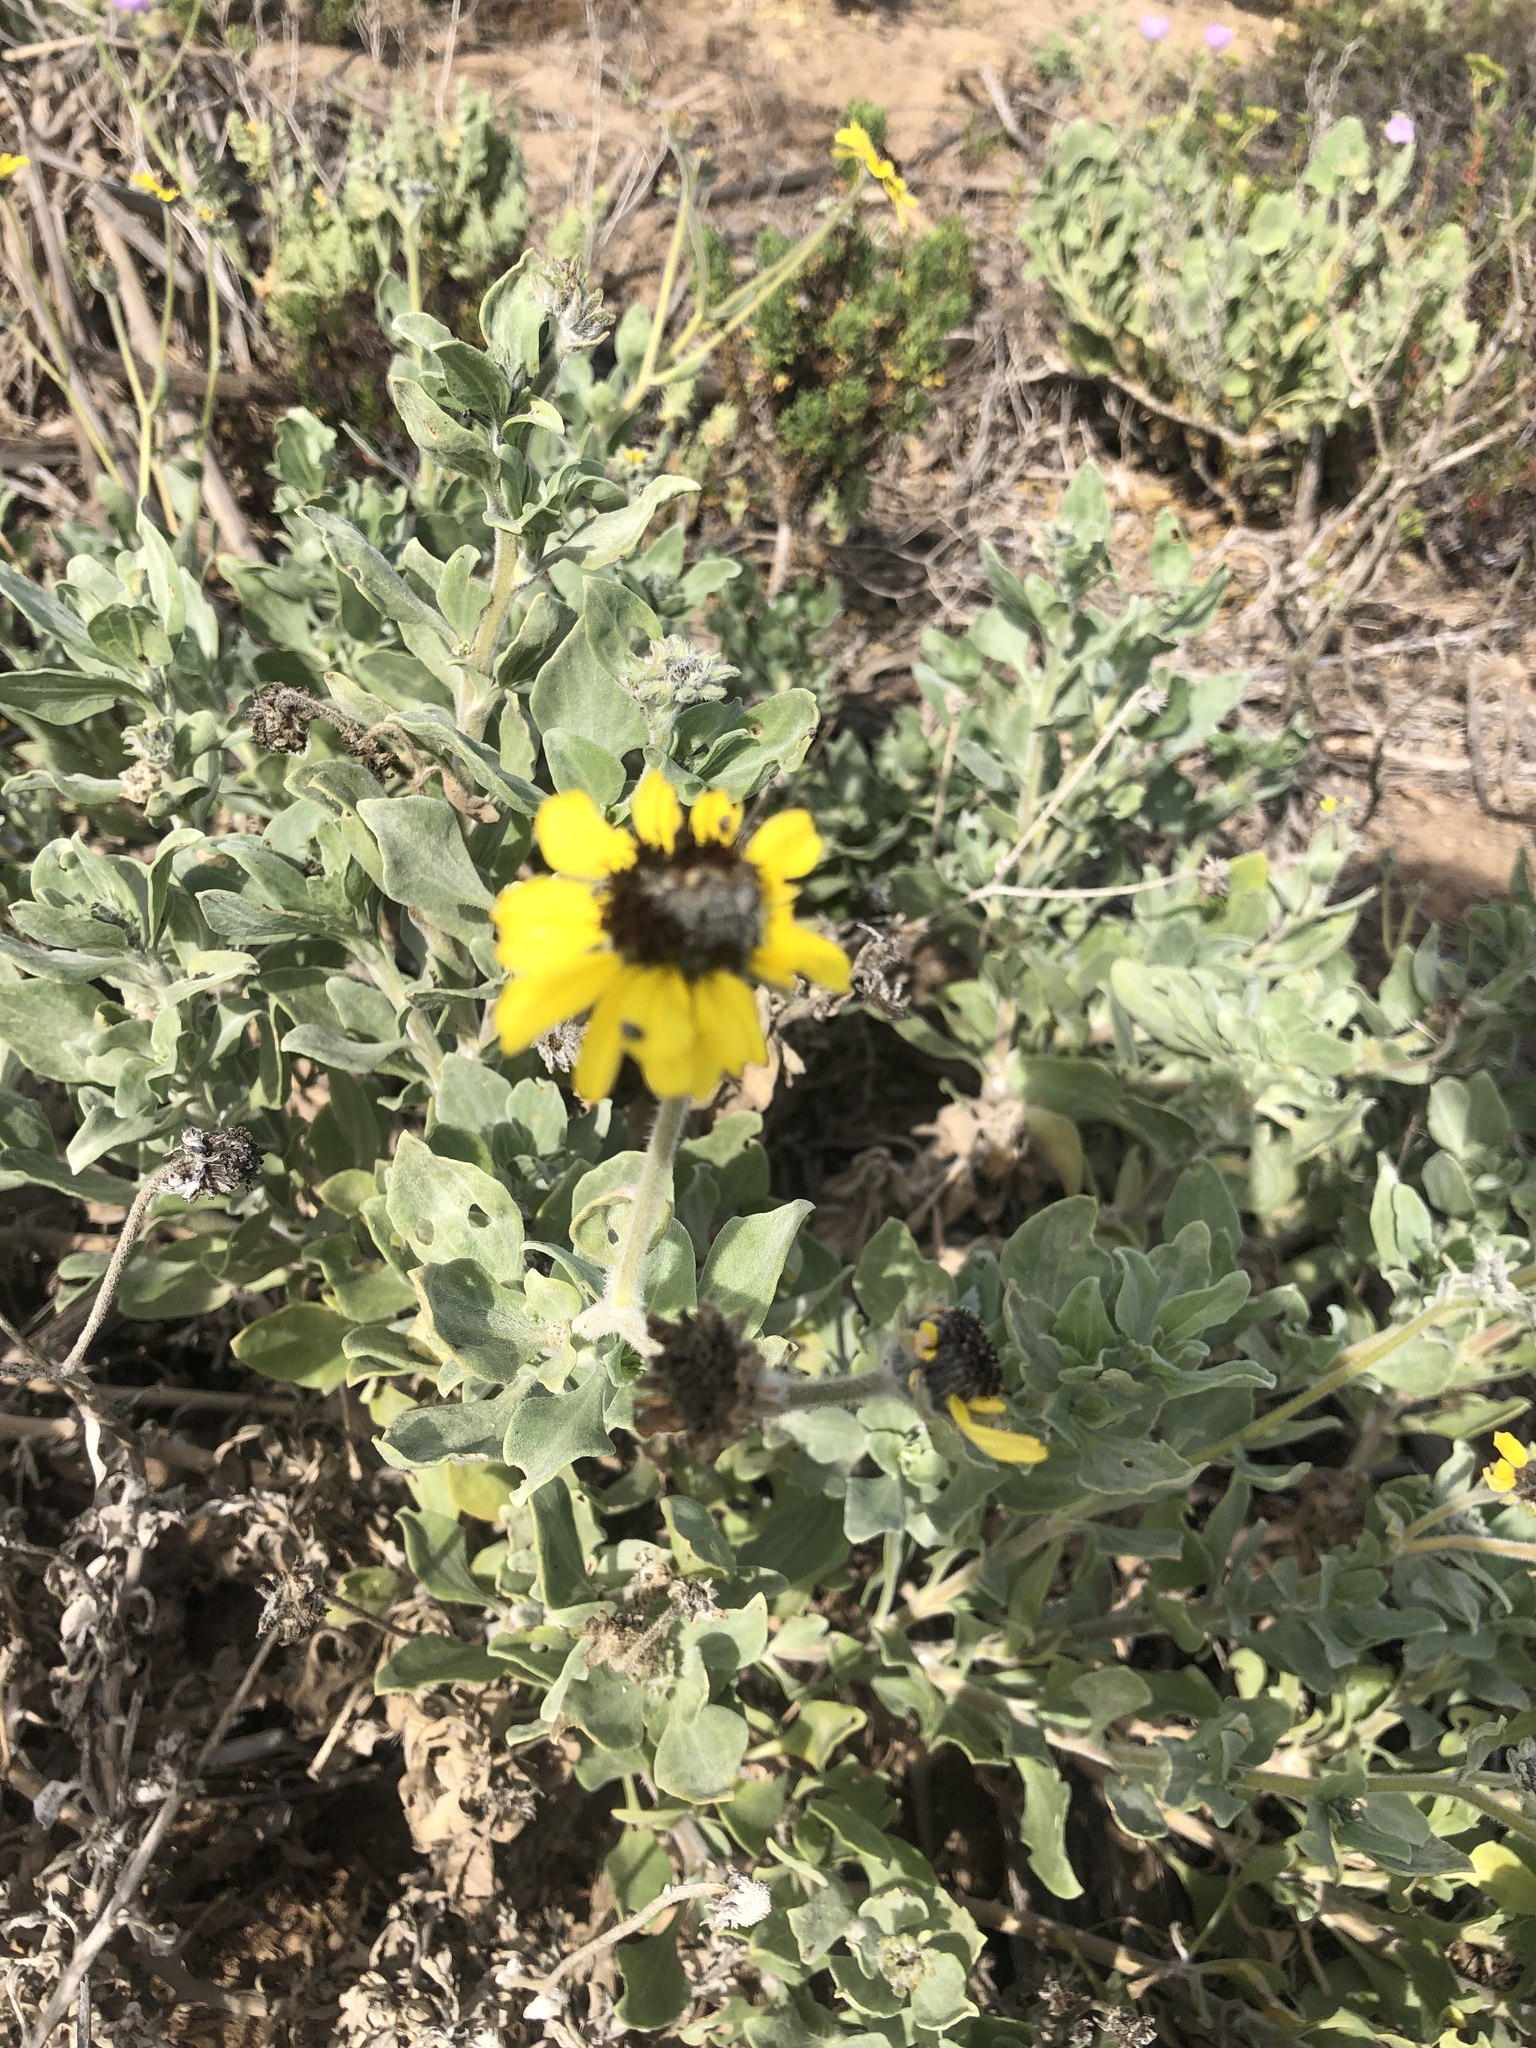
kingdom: Plantae
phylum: Tracheophyta
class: Magnoliopsida
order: Asterales
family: Asteraceae
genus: Encelia
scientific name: Encelia canescens
